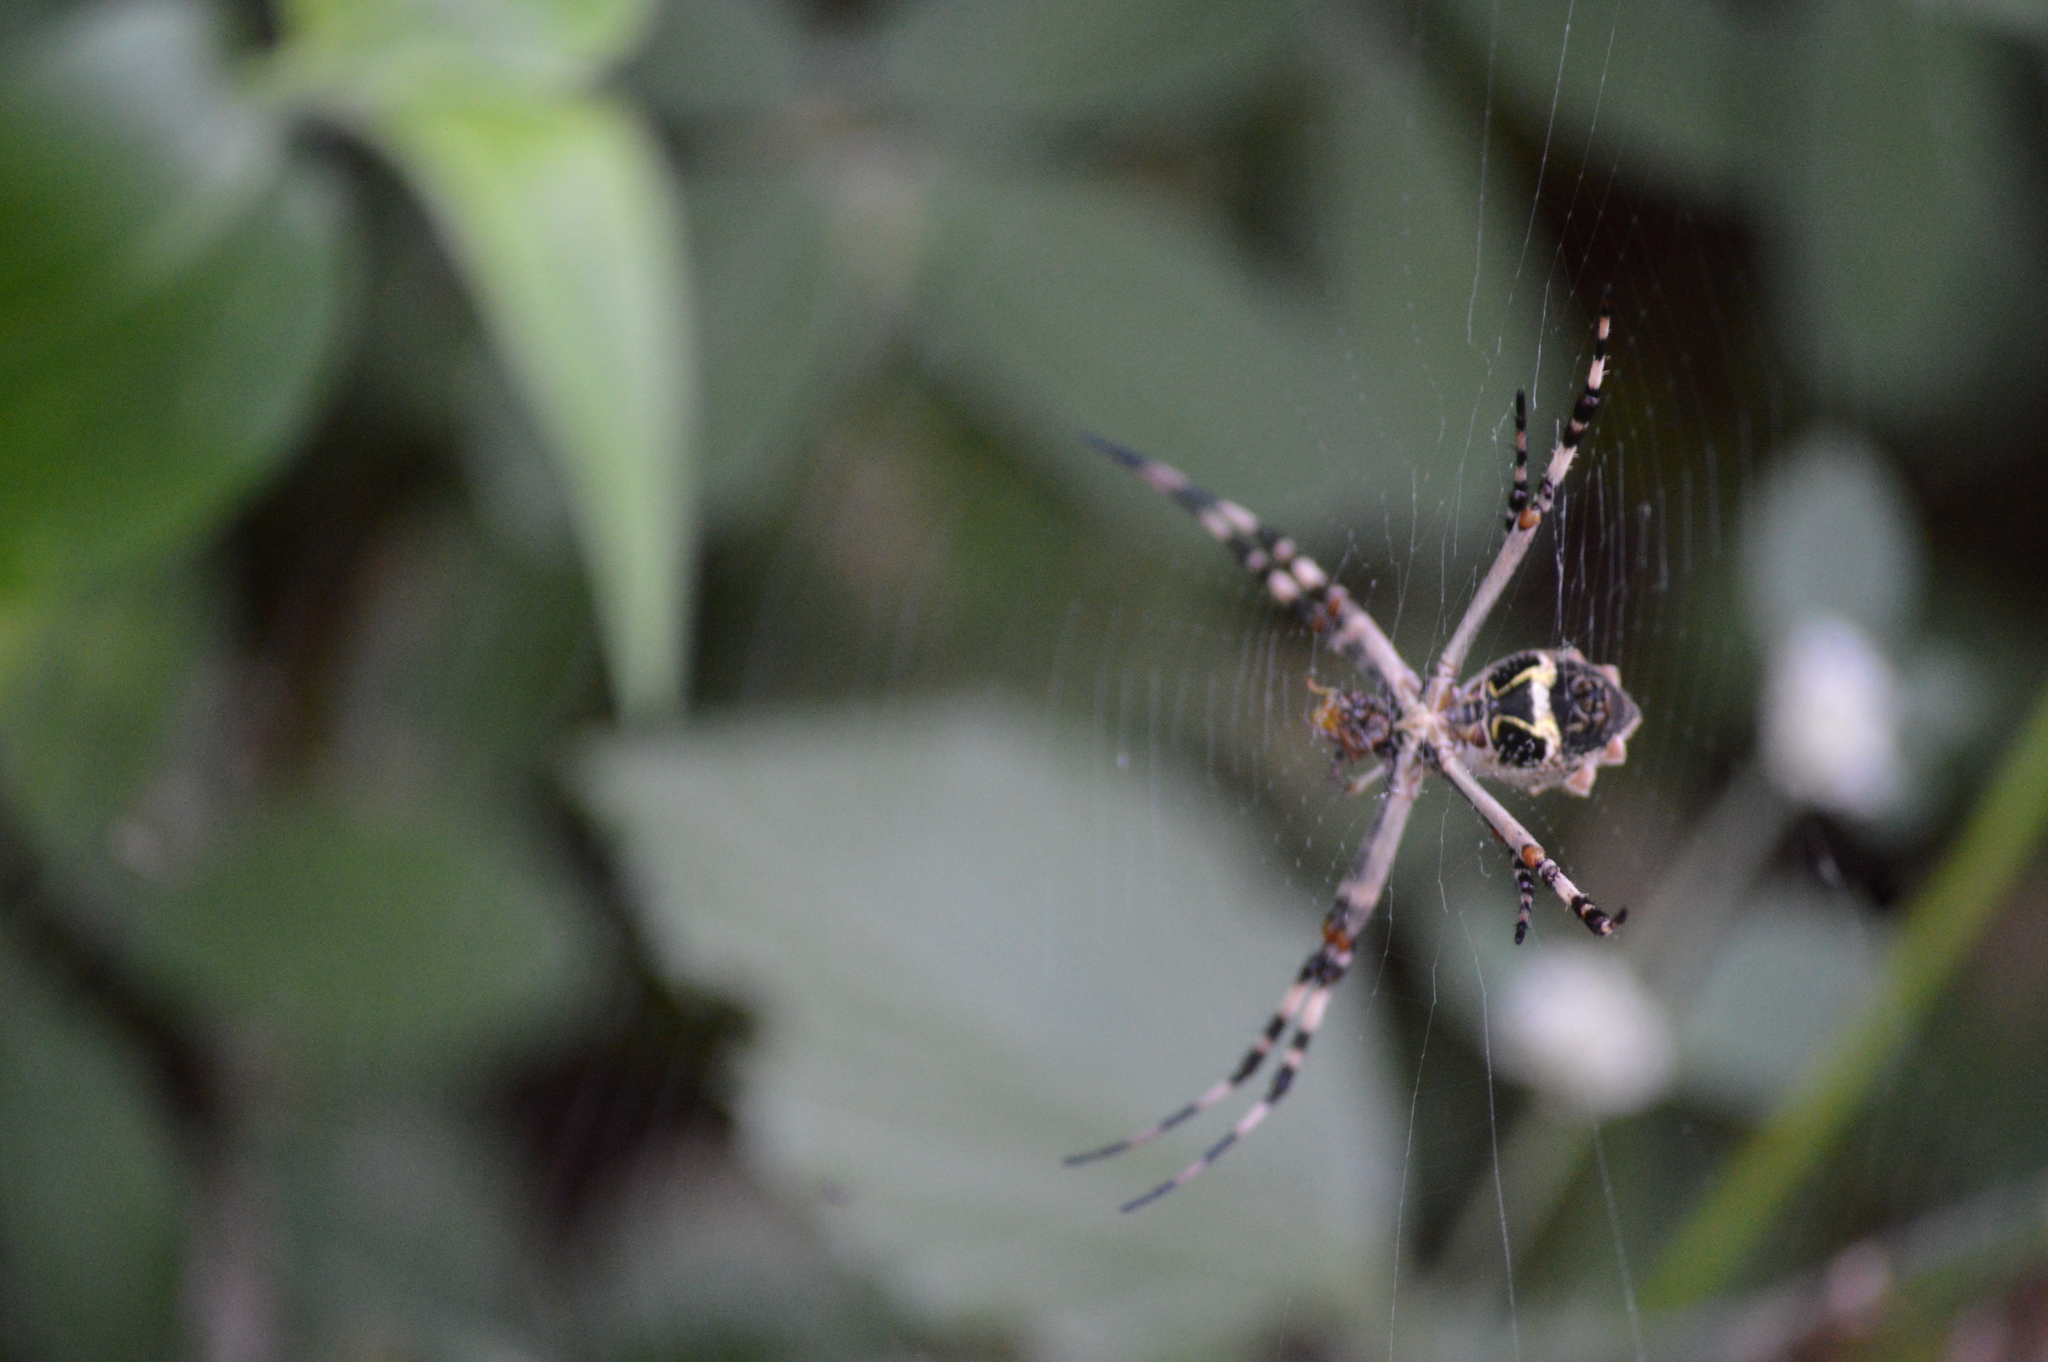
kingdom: Animalia
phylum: Arthropoda
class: Arachnida
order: Araneae
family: Araneidae
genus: Argiope
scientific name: Argiope argentata
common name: Orb weavers
